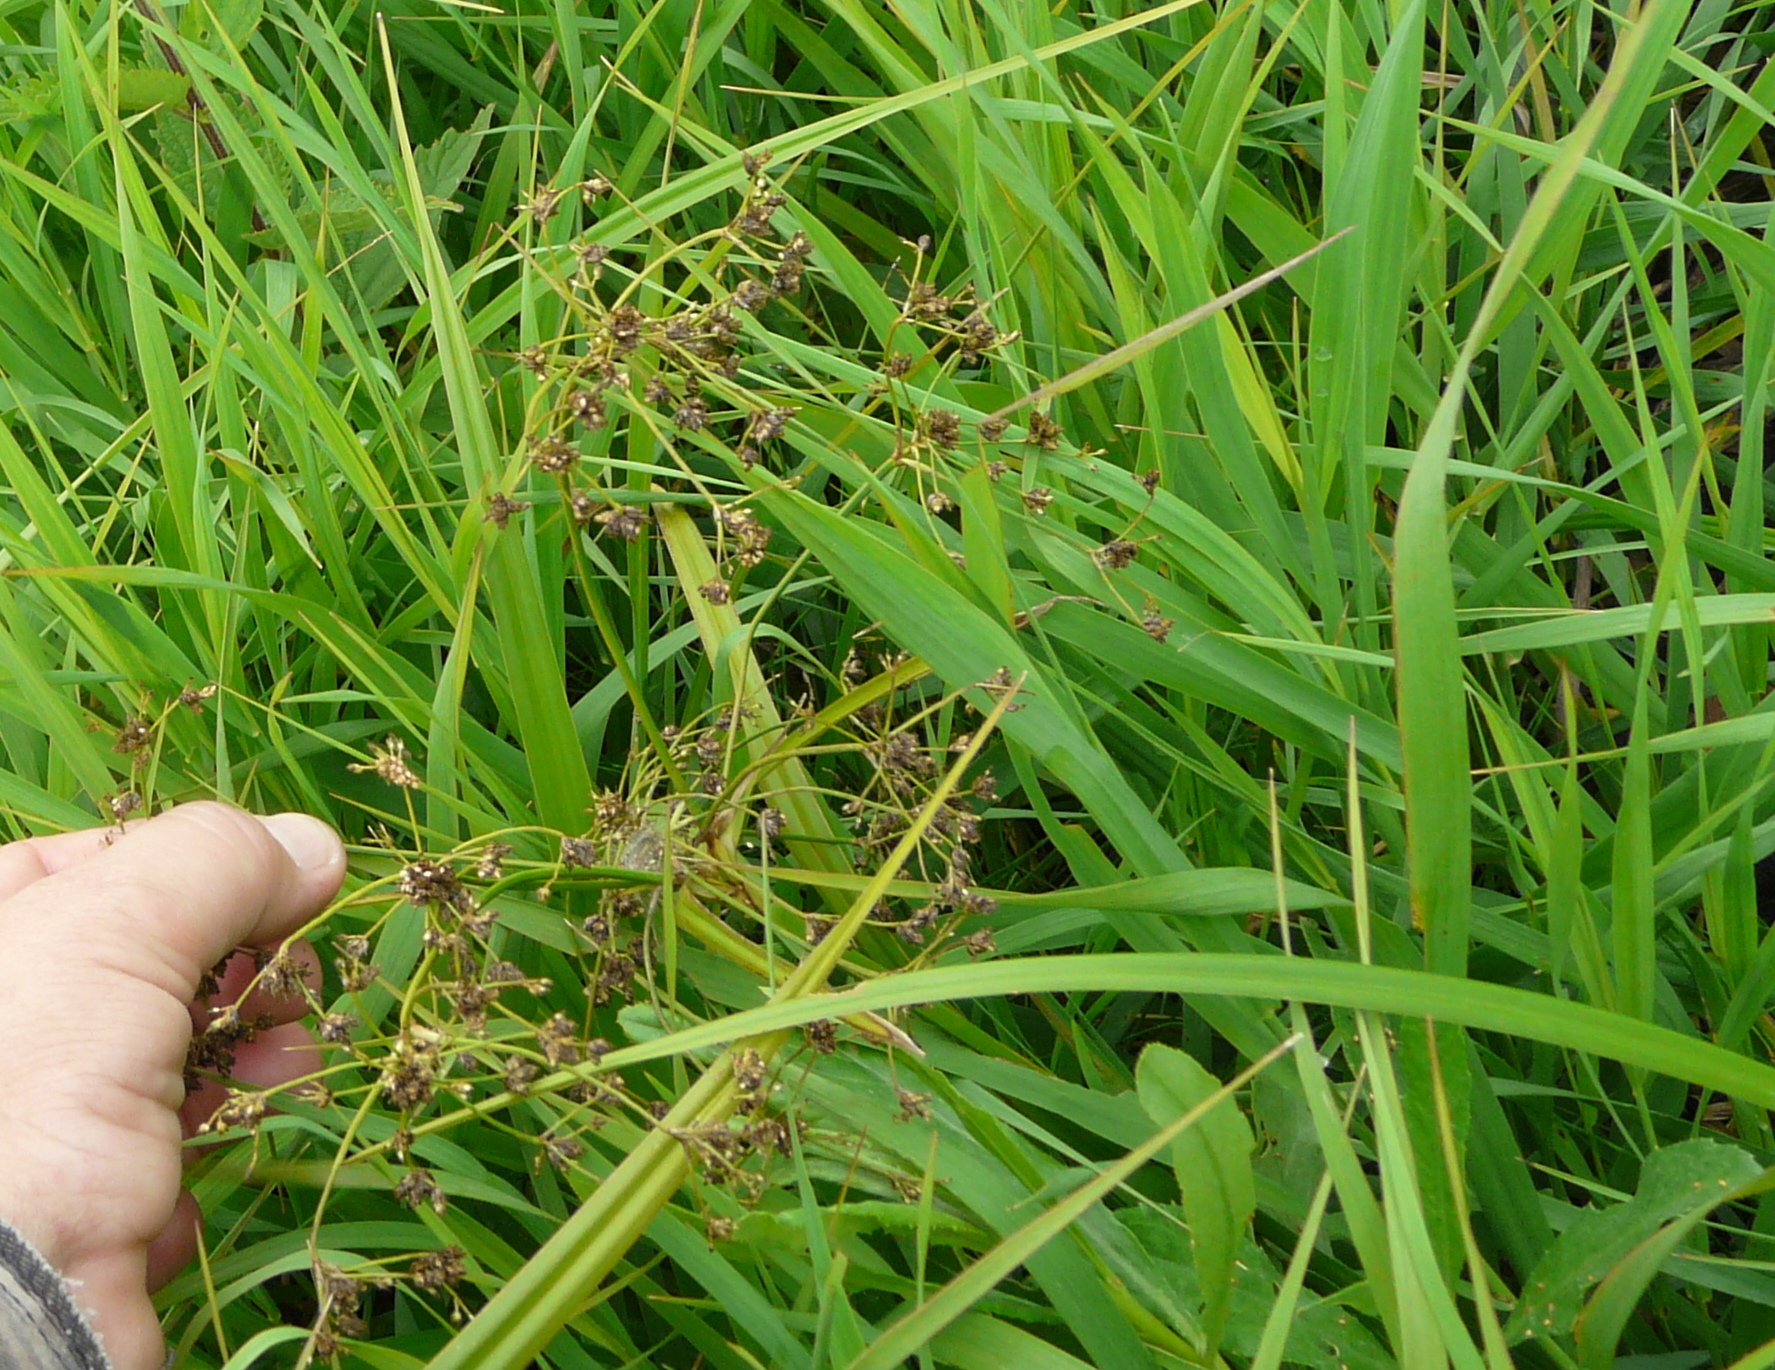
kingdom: Plantae
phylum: Tracheophyta
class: Liliopsida
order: Poales
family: Cyperaceae
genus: Scirpus
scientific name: Scirpus sylvaticus
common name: Wood club-rush
